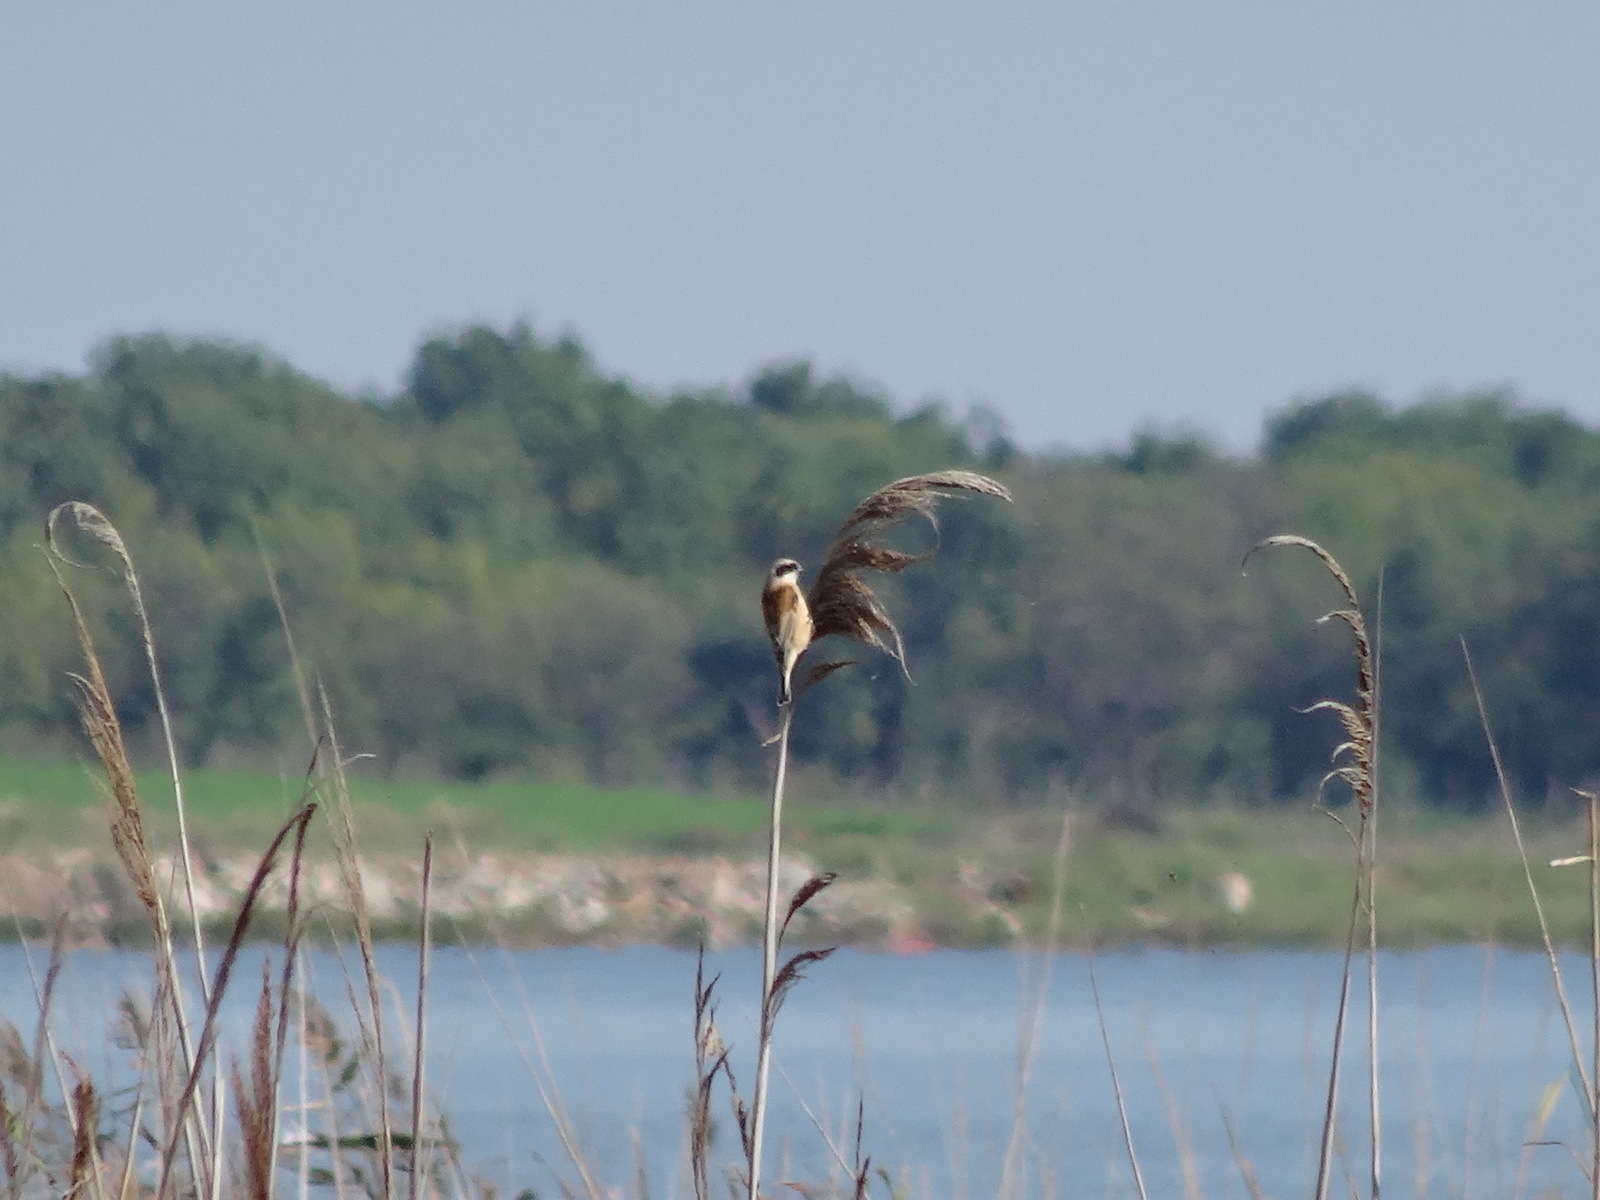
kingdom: Animalia
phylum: Chordata
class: Aves
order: Passeriformes
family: Remizidae
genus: Remiz
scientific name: Remiz pendulinus
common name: Eurasian penduline tit
